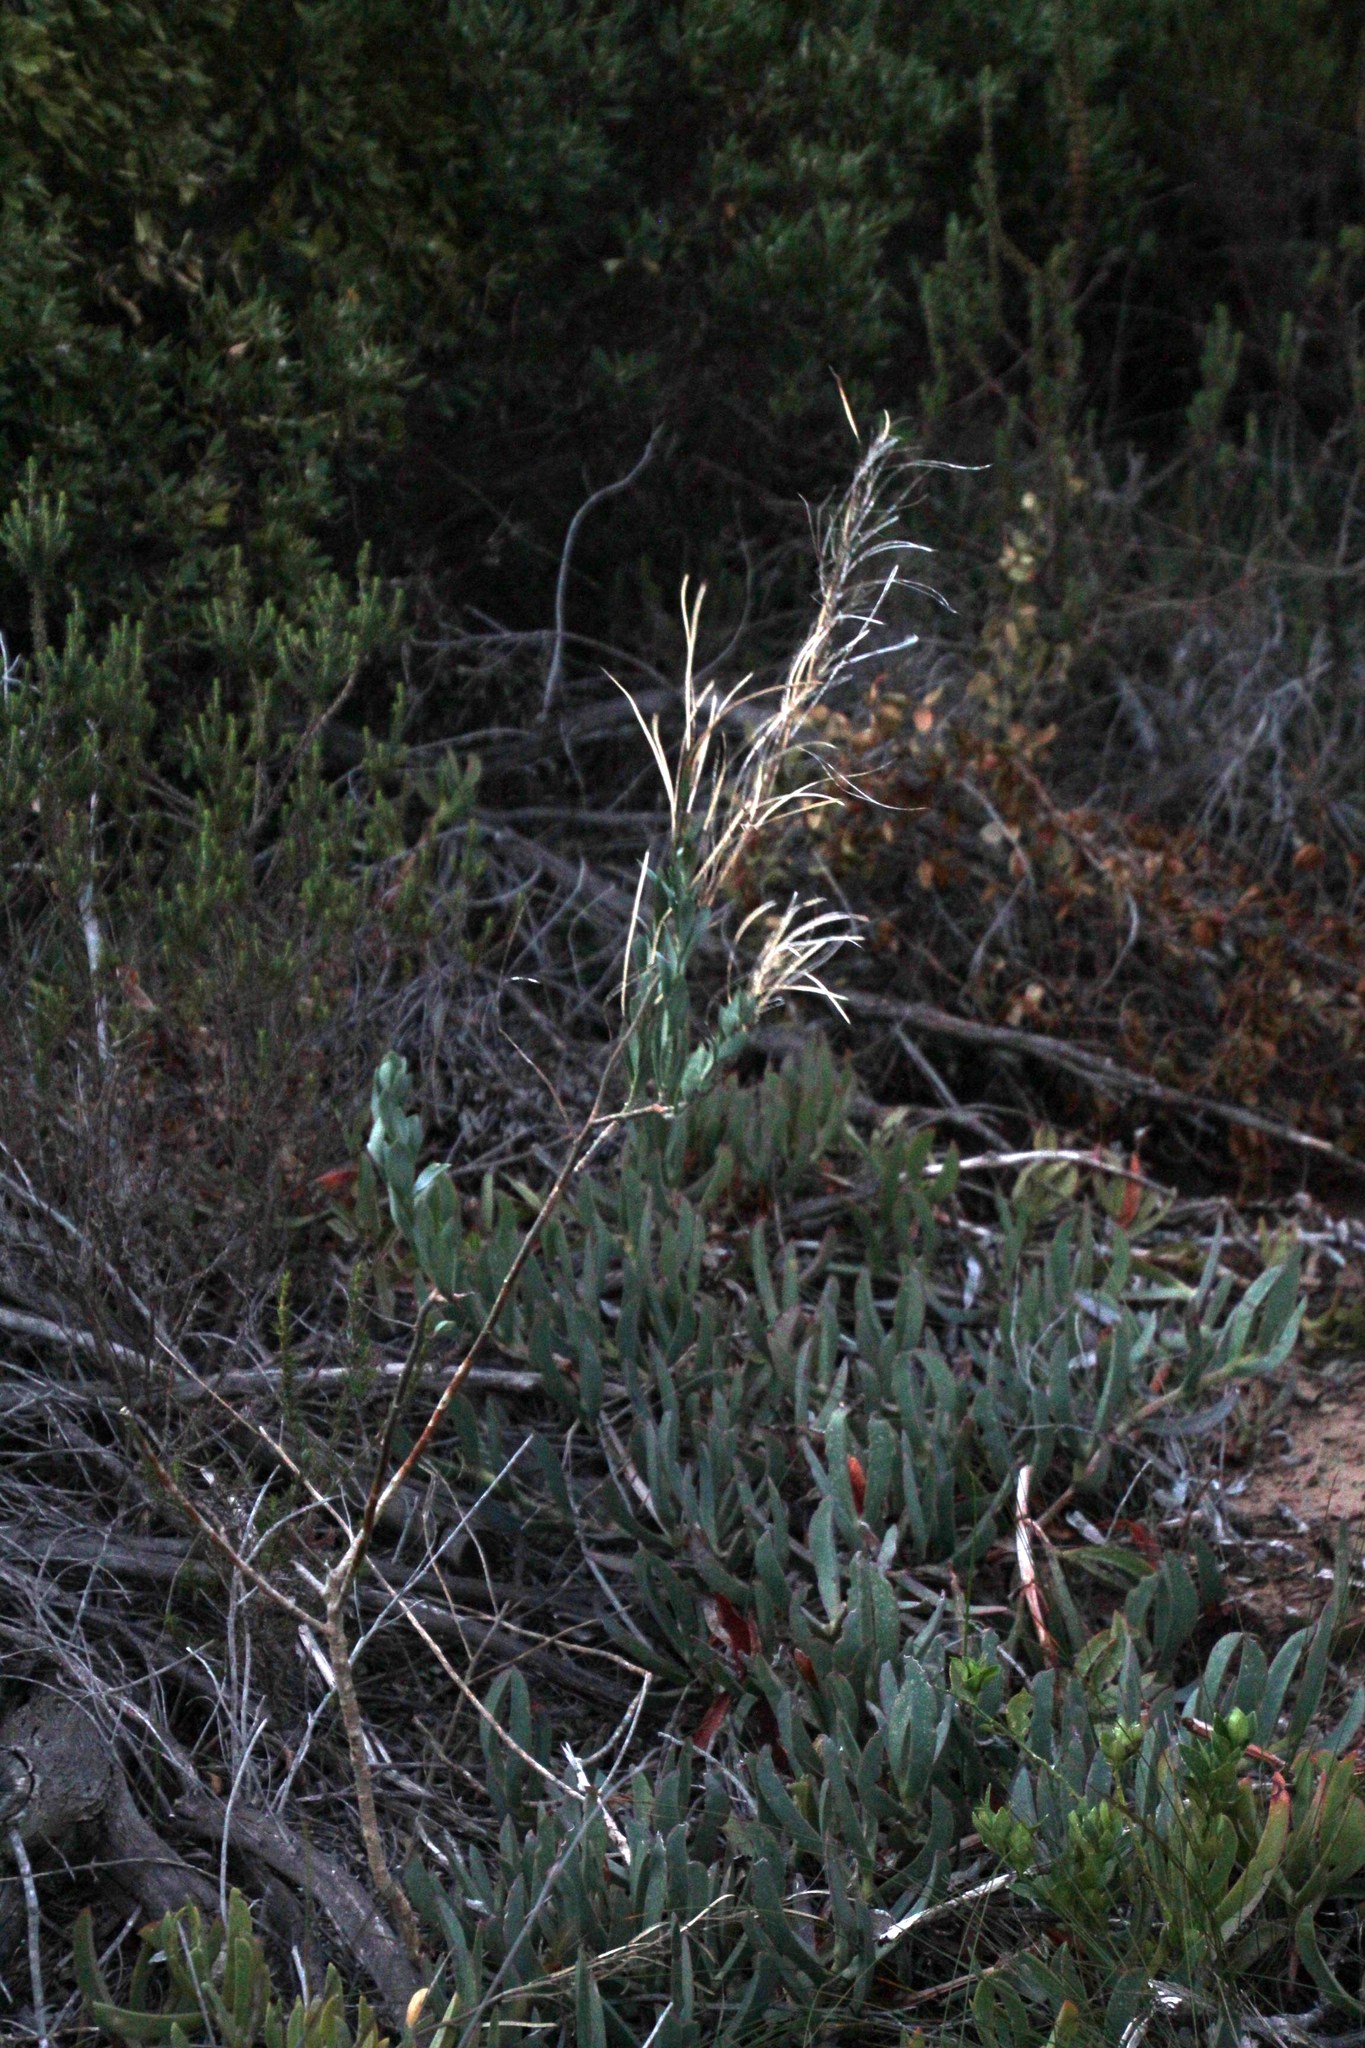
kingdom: Plantae
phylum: Tracheophyta
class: Magnoliopsida
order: Brassicales
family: Brassicaceae
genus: Heliophila
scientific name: Heliophila linearis
